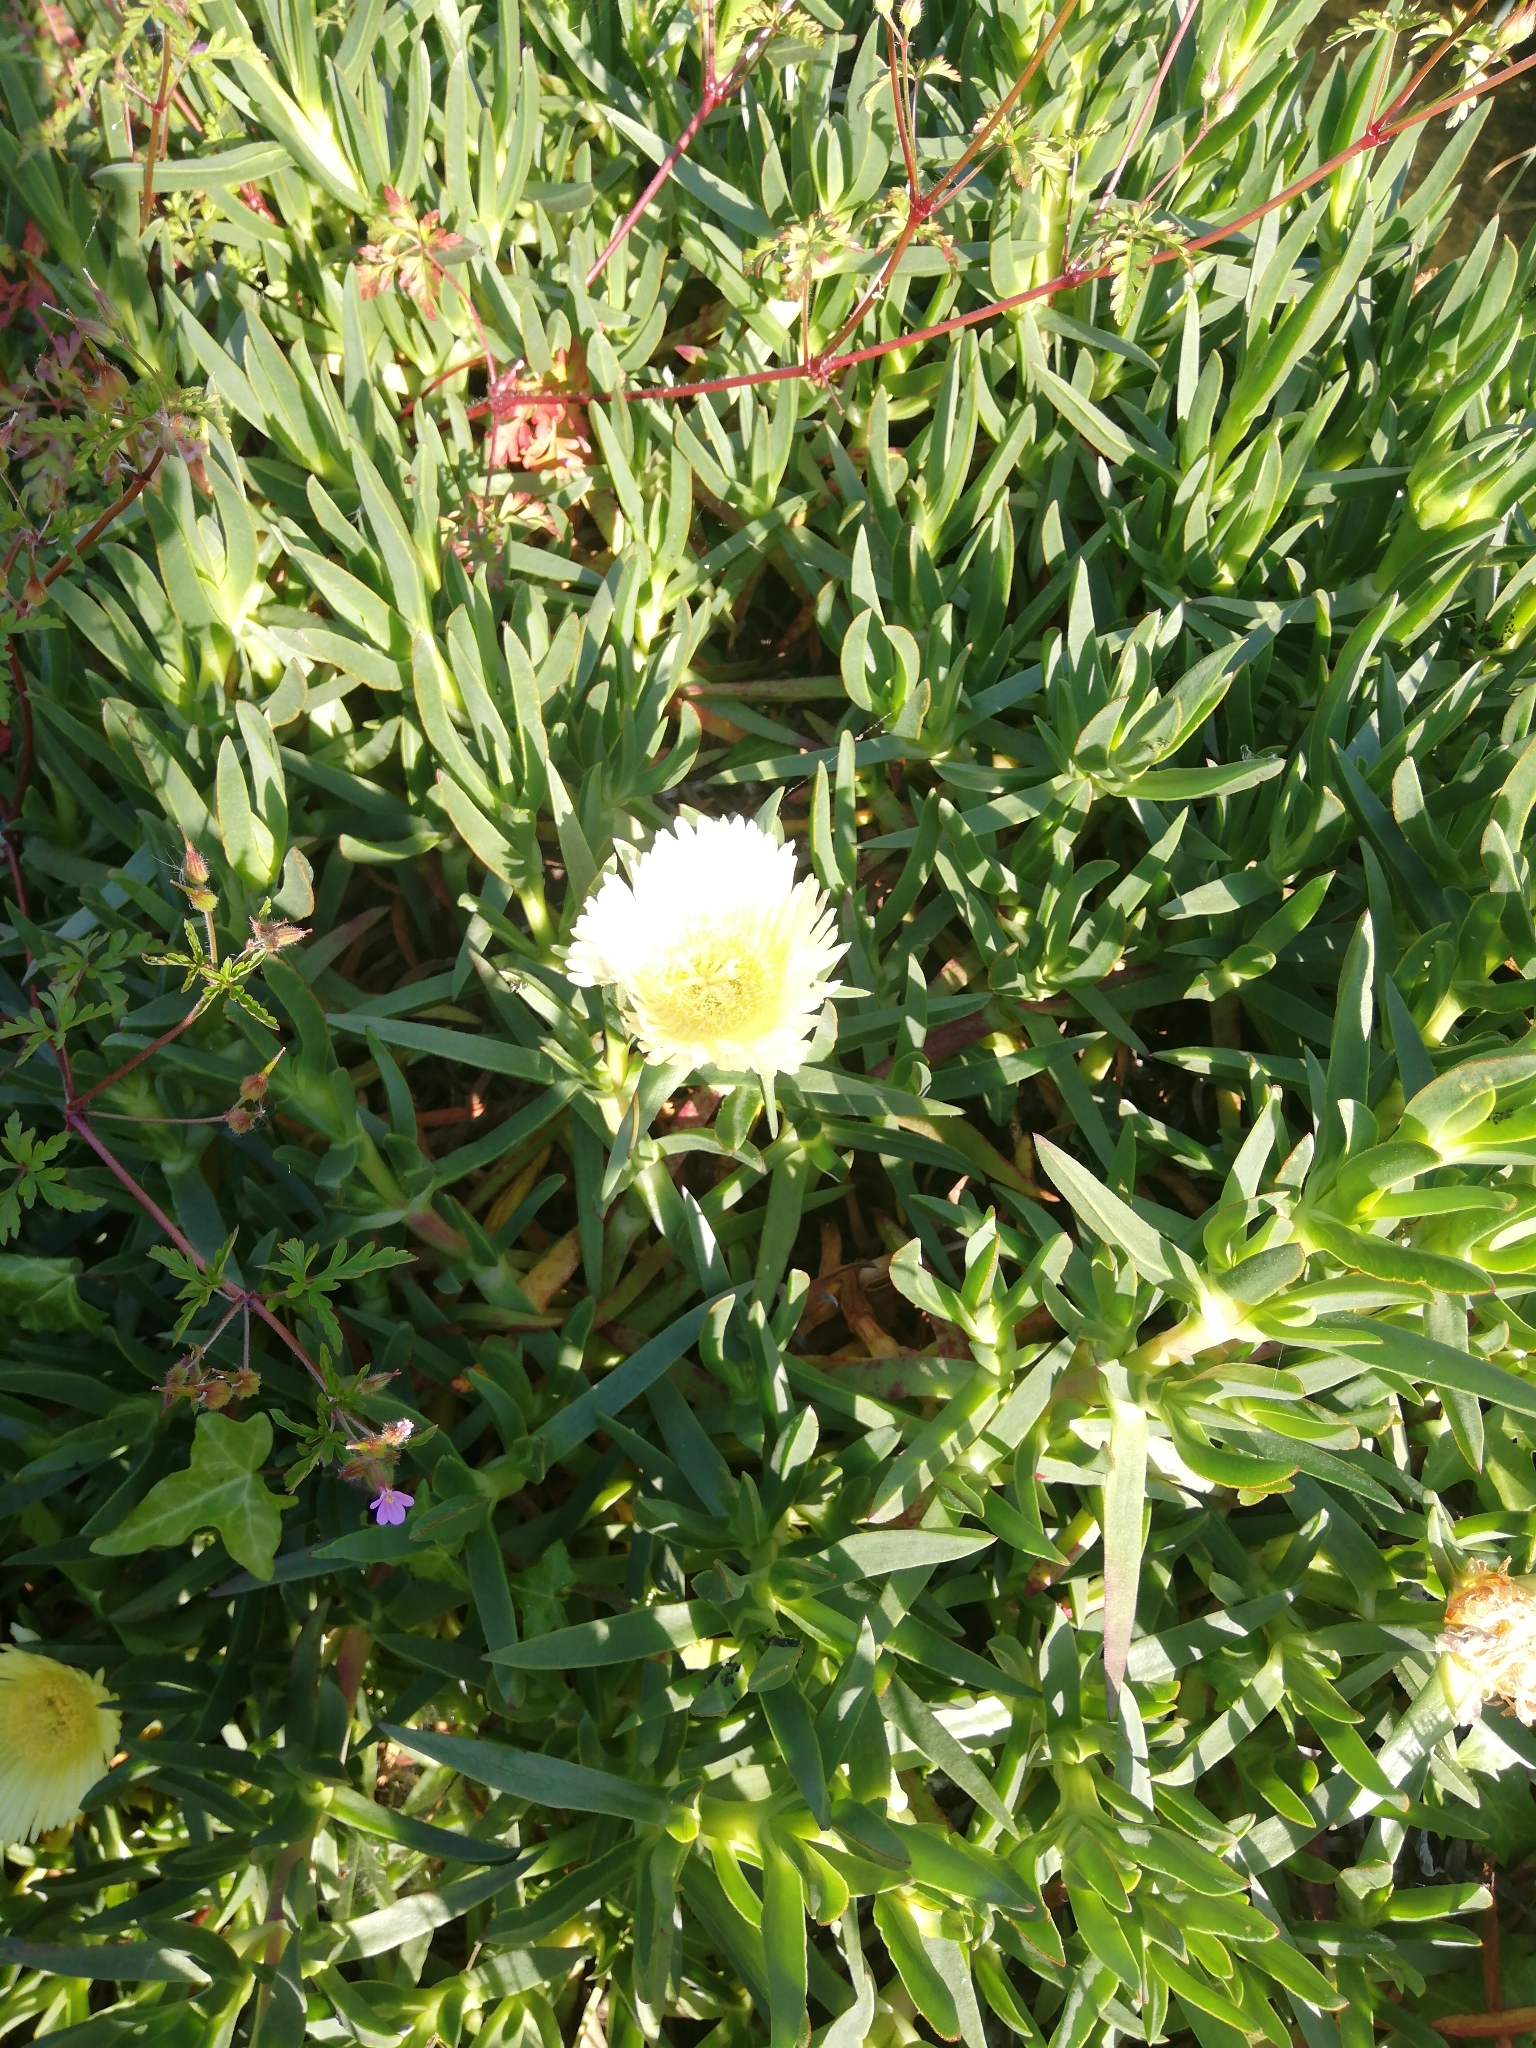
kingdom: Plantae
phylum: Tracheophyta
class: Magnoliopsida
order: Caryophyllales
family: Aizoaceae
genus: Carpobrotus
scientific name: Carpobrotus edulis
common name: Hottentot-fig
